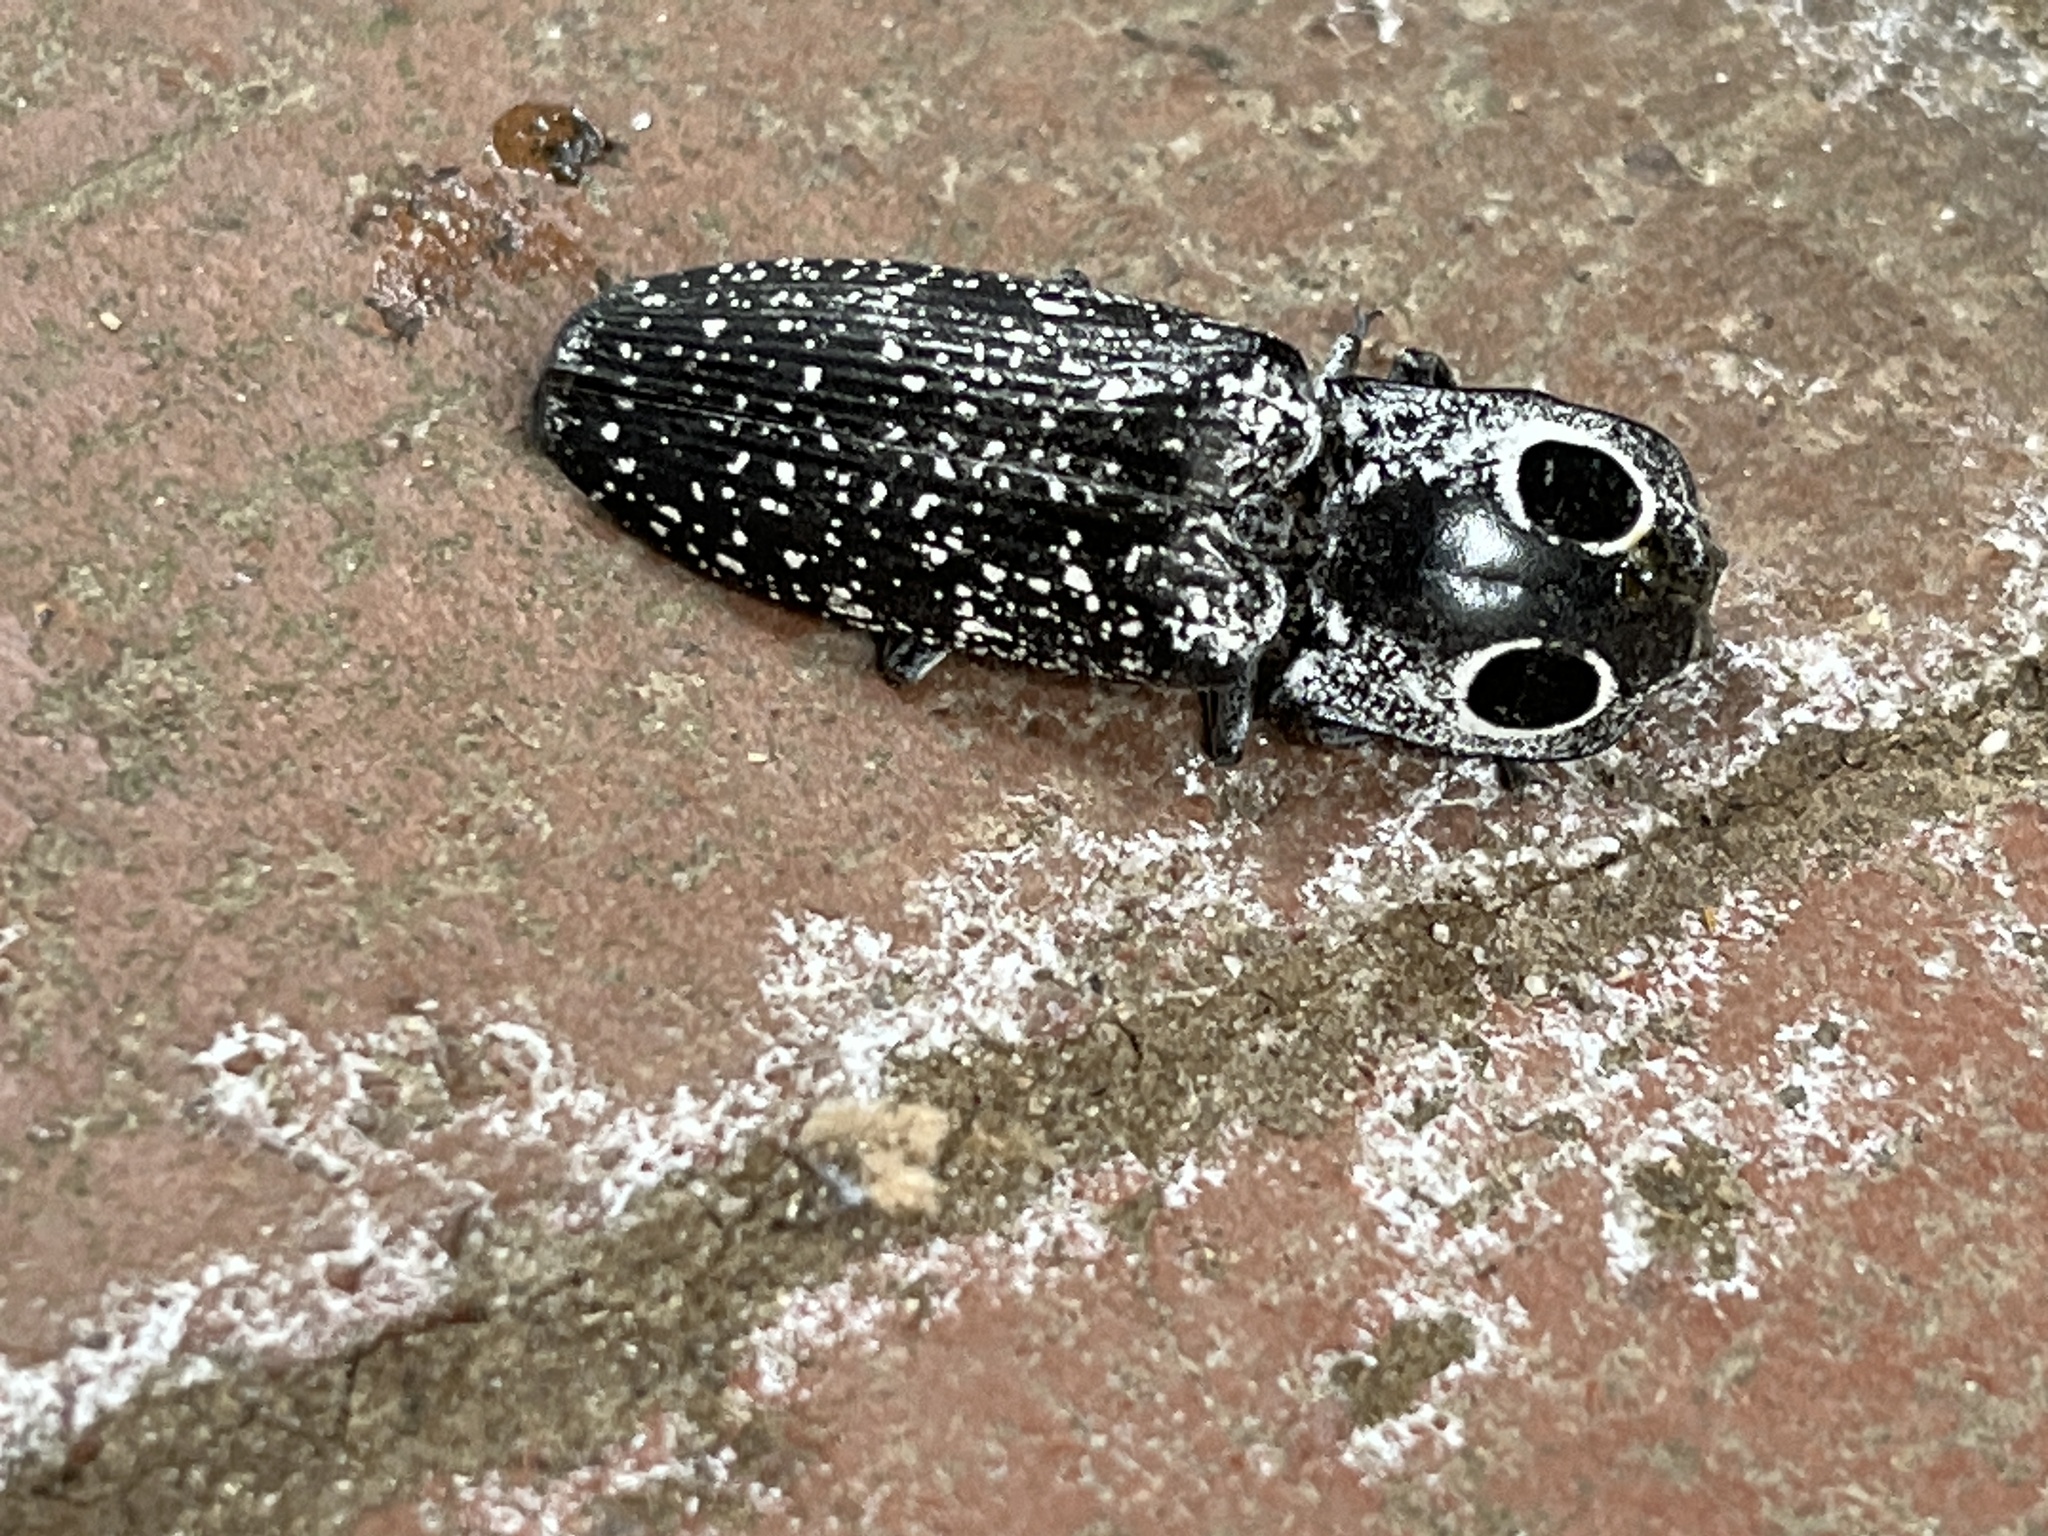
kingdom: Animalia
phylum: Arthropoda
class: Insecta
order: Coleoptera
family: Elateridae
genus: Alaus
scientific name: Alaus oculatus
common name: Eastern eyed click beetle
